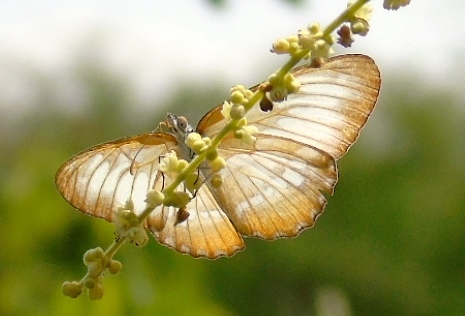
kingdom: Animalia
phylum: Arthropoda
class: Insecta
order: Lepidoptera
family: Nymphalidae
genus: Mestra
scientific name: Mestra amymone
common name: Common mestra
